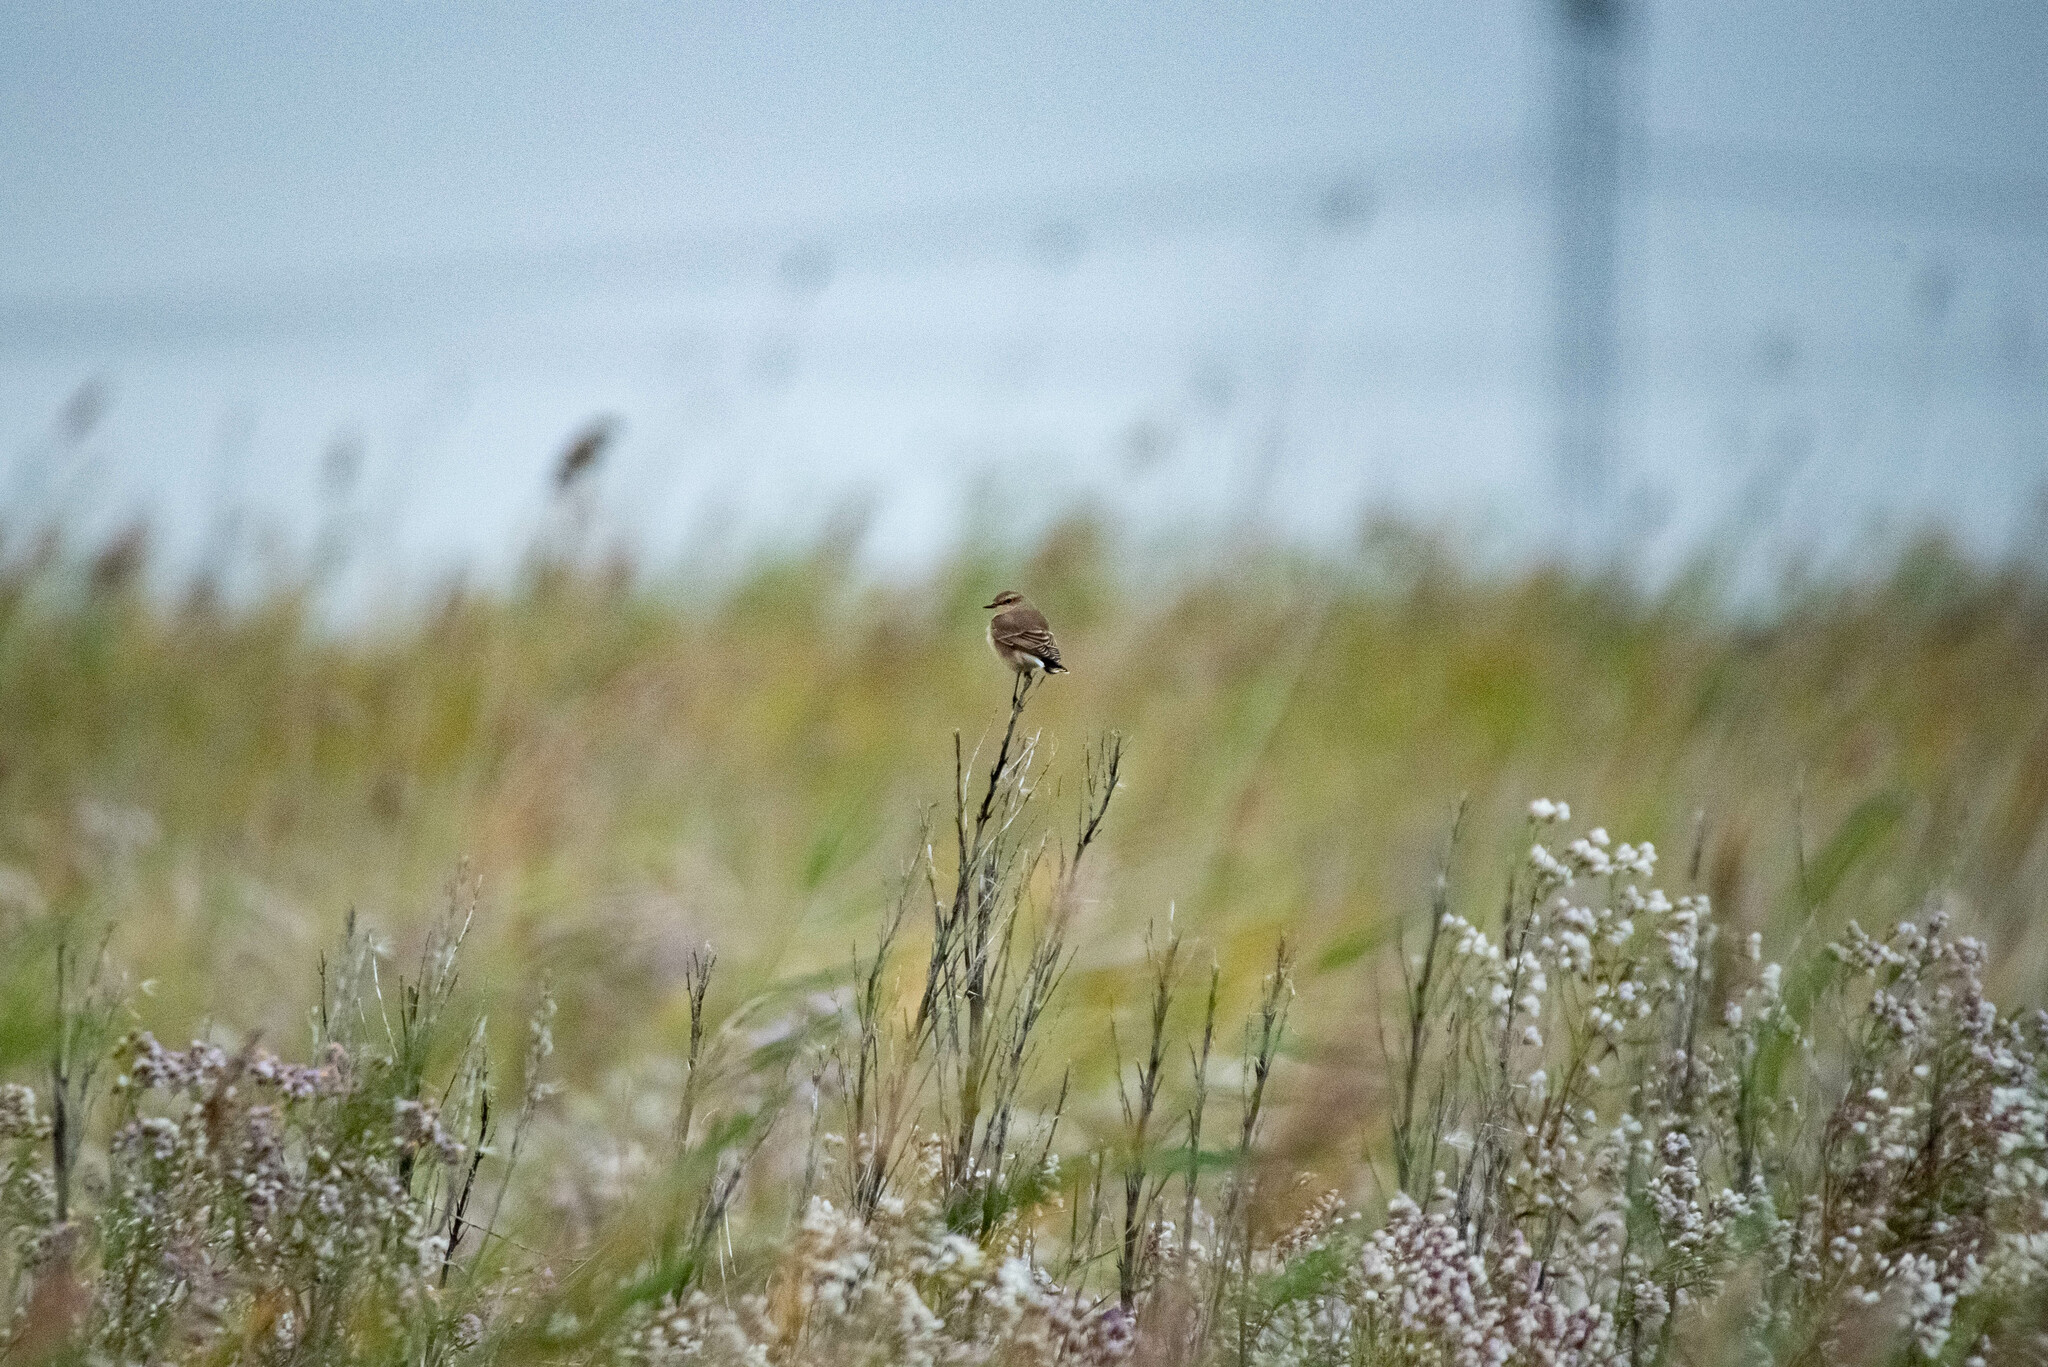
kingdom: Animalia
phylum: Chordata
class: Aves
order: Passeriformes
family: Muscicapidae
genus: Oenanthe
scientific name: Oenanthe oenanthe
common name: Northern wheatear
